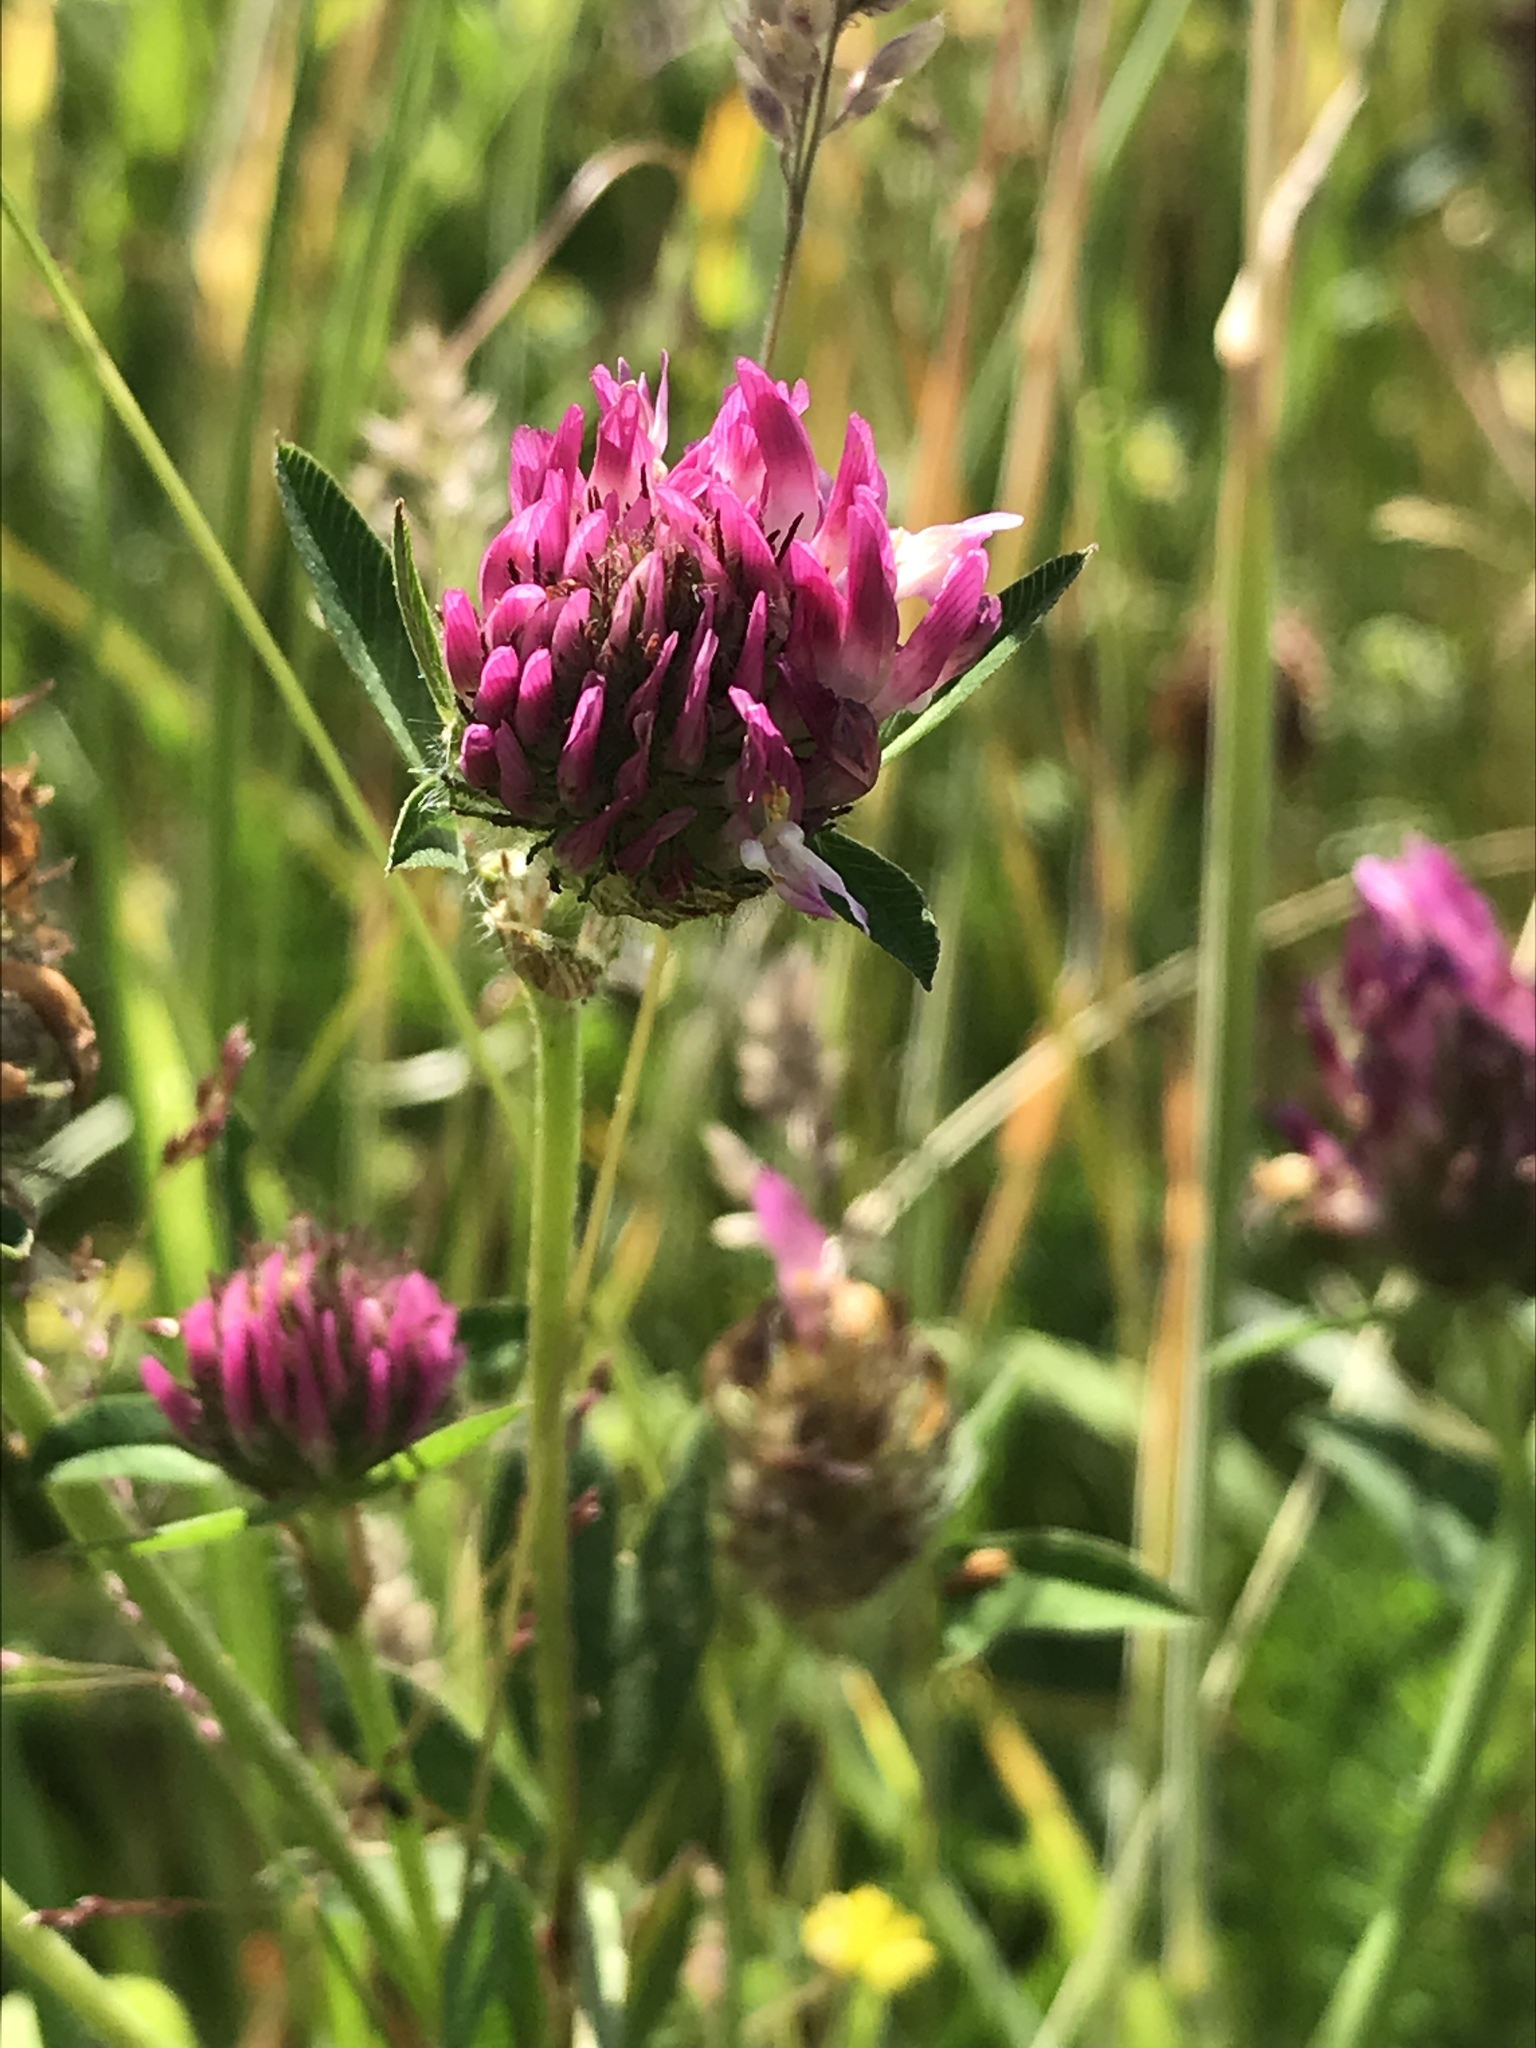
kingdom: Plantae
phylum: Tracheophyta
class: Magnoliopsida
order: Fabales
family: Fabaceae
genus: Trifolium
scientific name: Trifolium pratense
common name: Red clover
